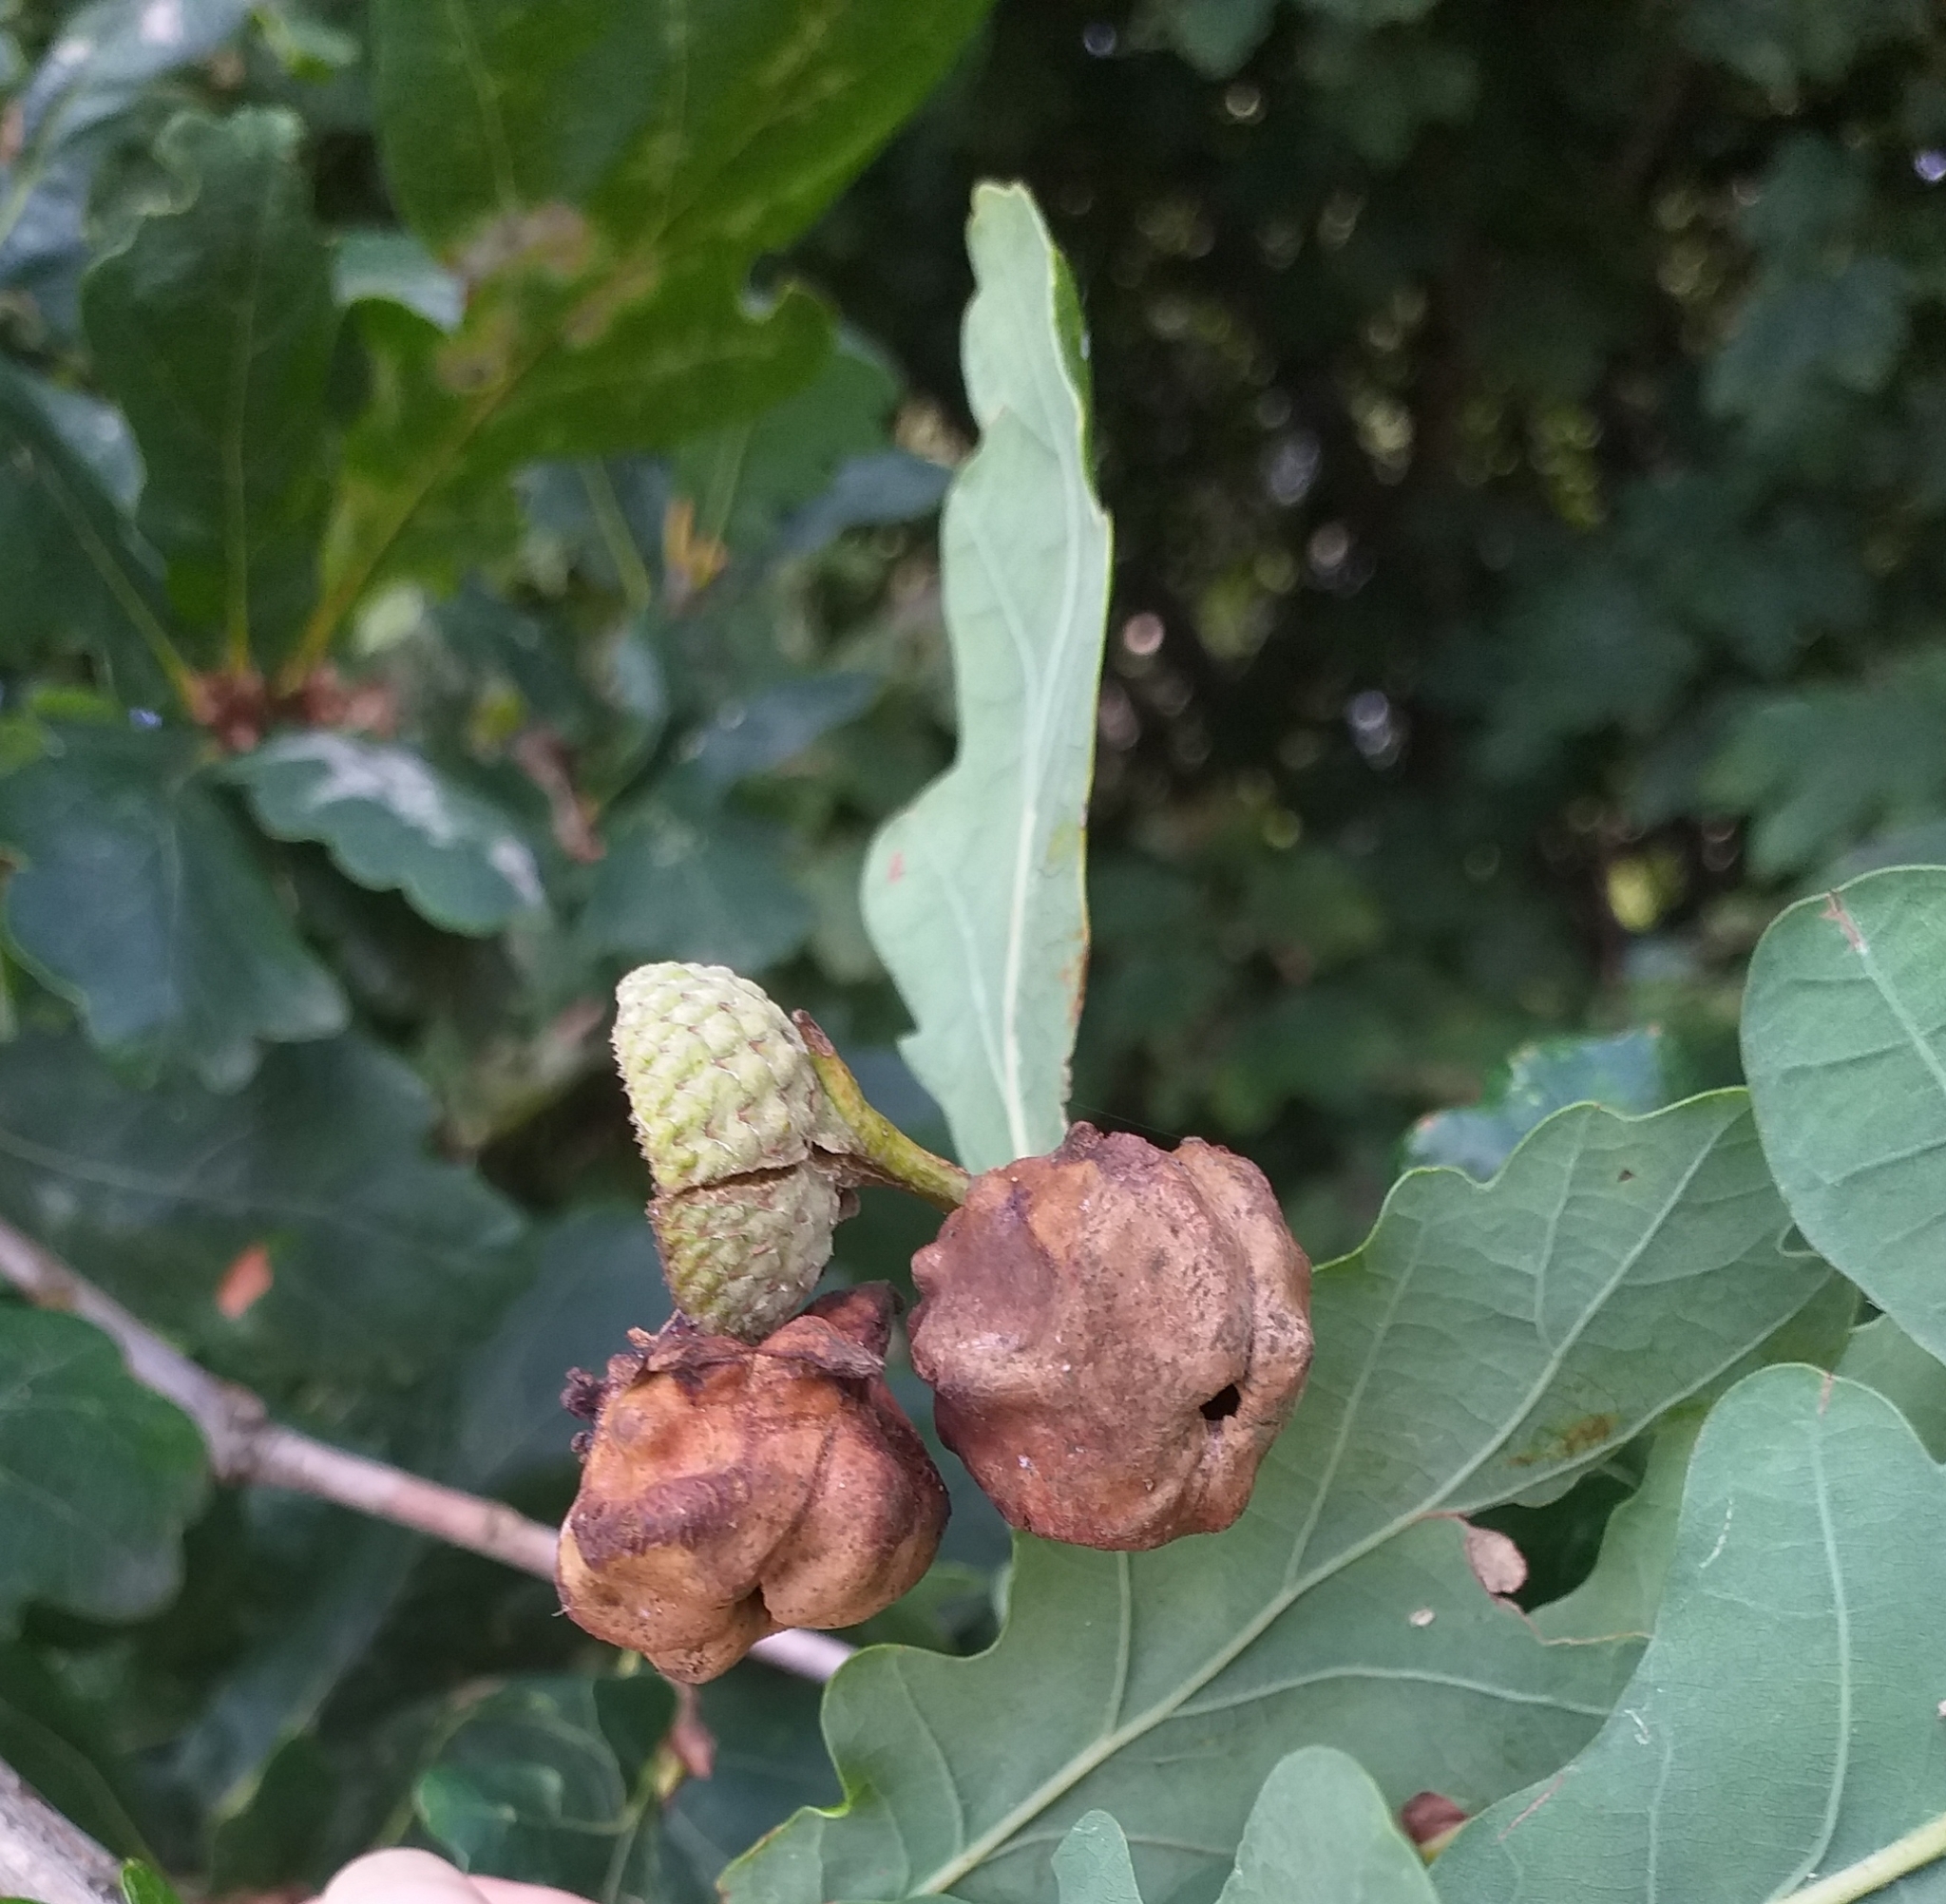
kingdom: Animalia
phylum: Arthropoda
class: Insecta
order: Hymenoptera
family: Cynipidae
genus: Andricus
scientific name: Andricus quercuscalicis
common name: Knopper gall
